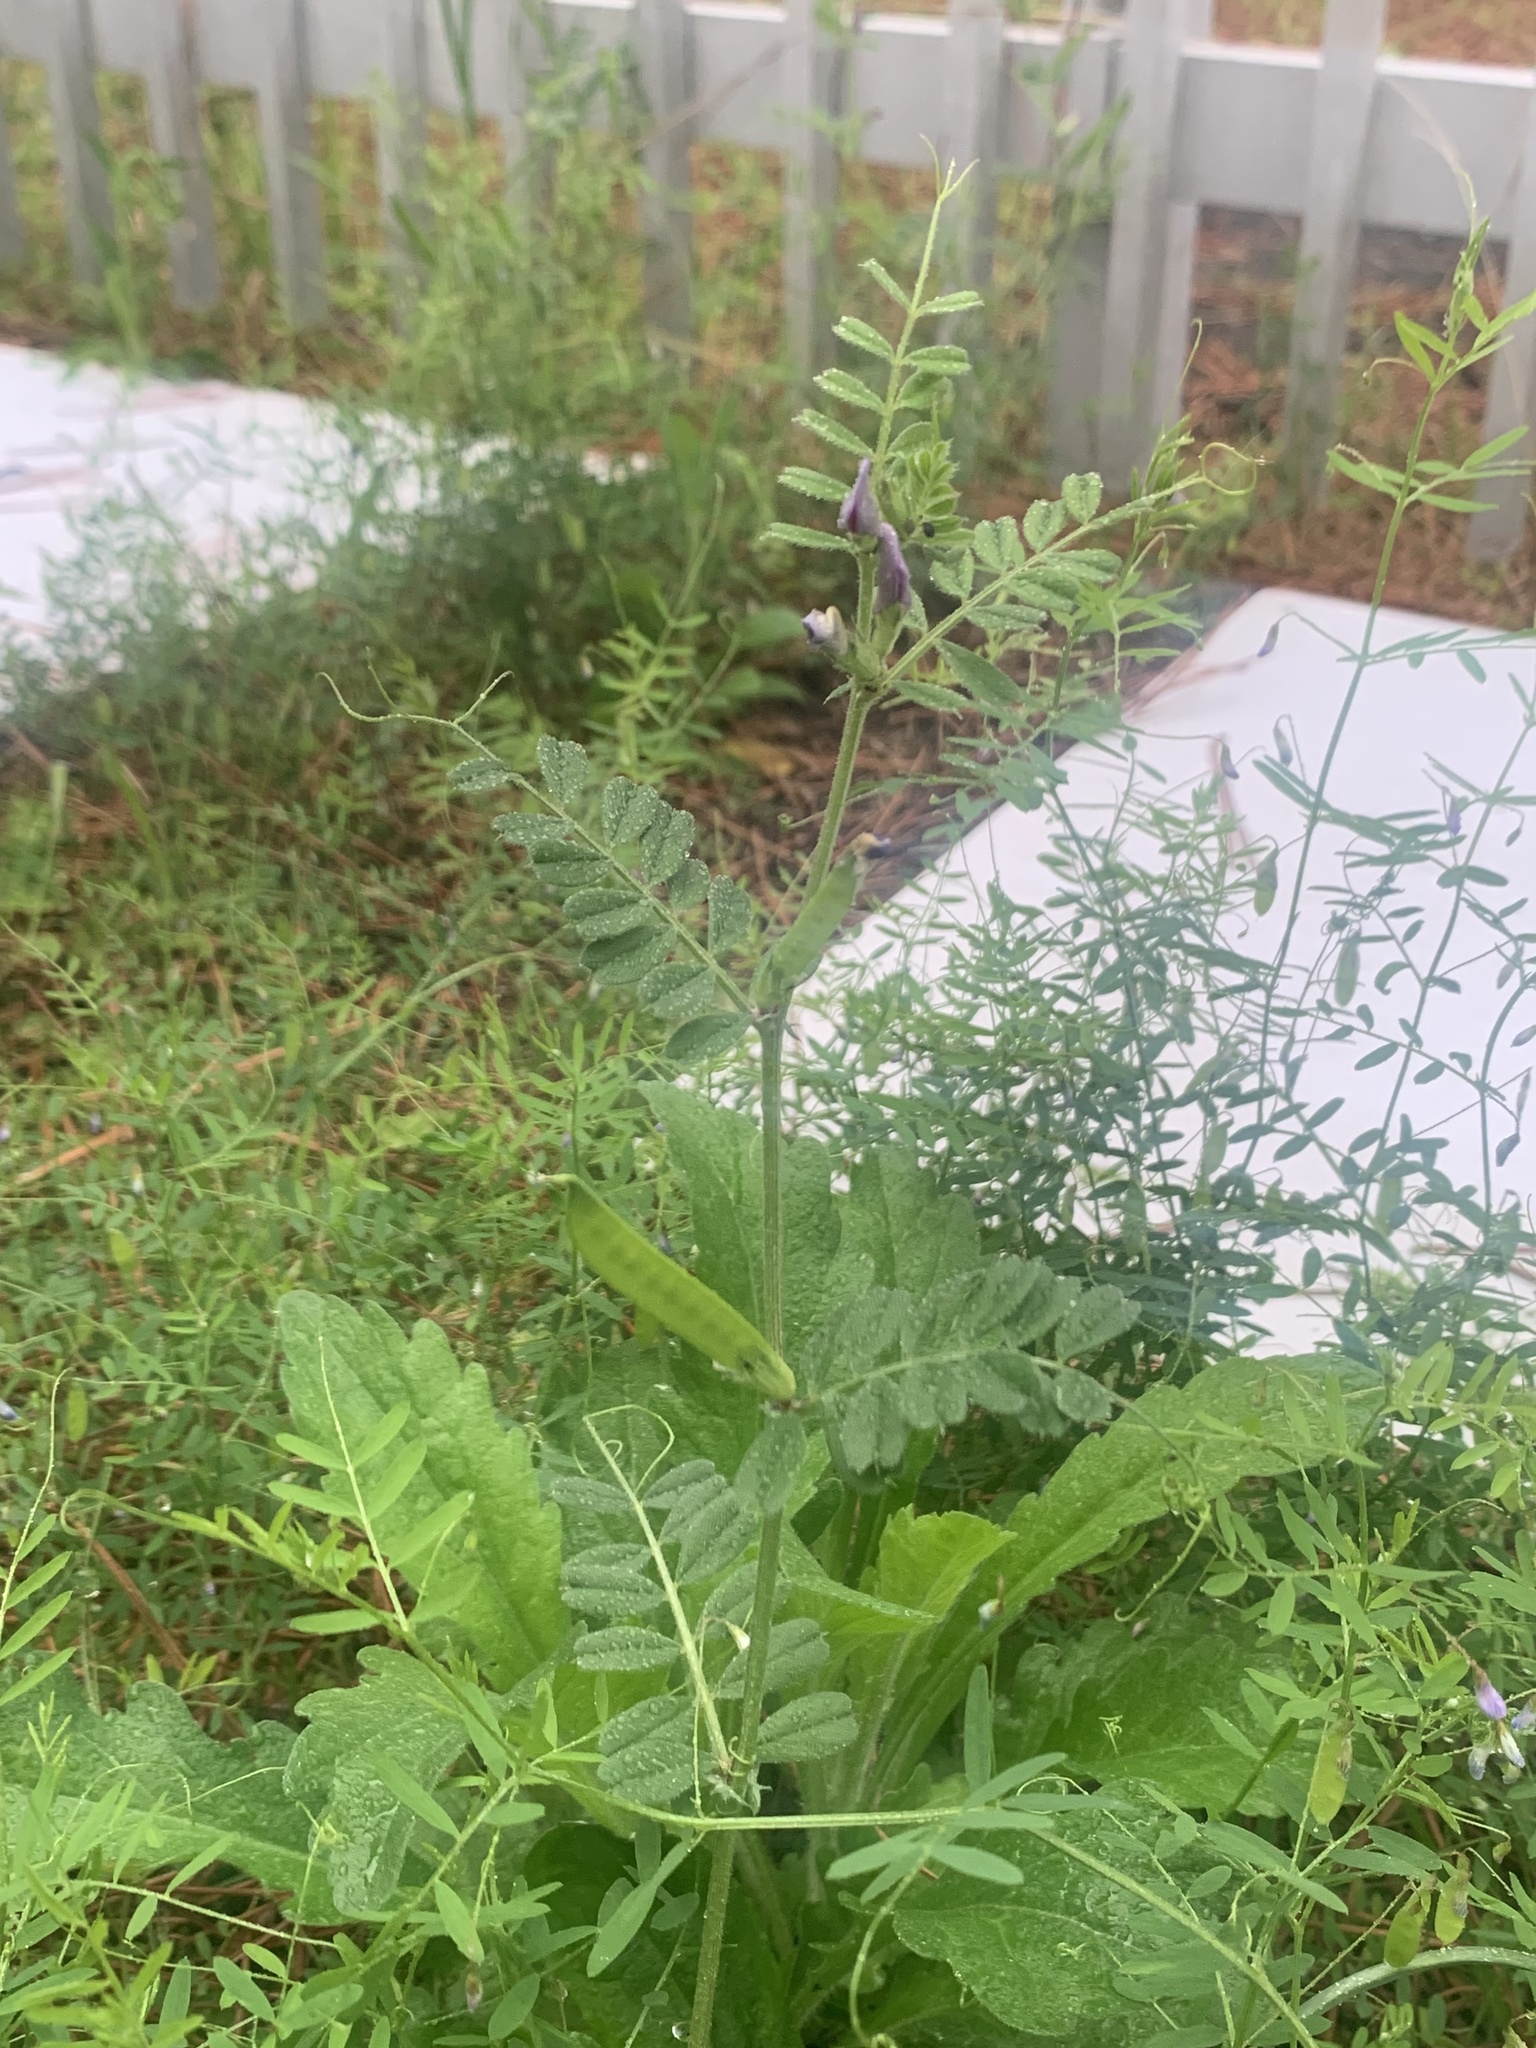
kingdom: Plantae
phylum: Tracheophyta
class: Magnoliopsida
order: Fabales
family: Fabaceae
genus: Vicia
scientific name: Vicia sativa
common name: Garden vetch
